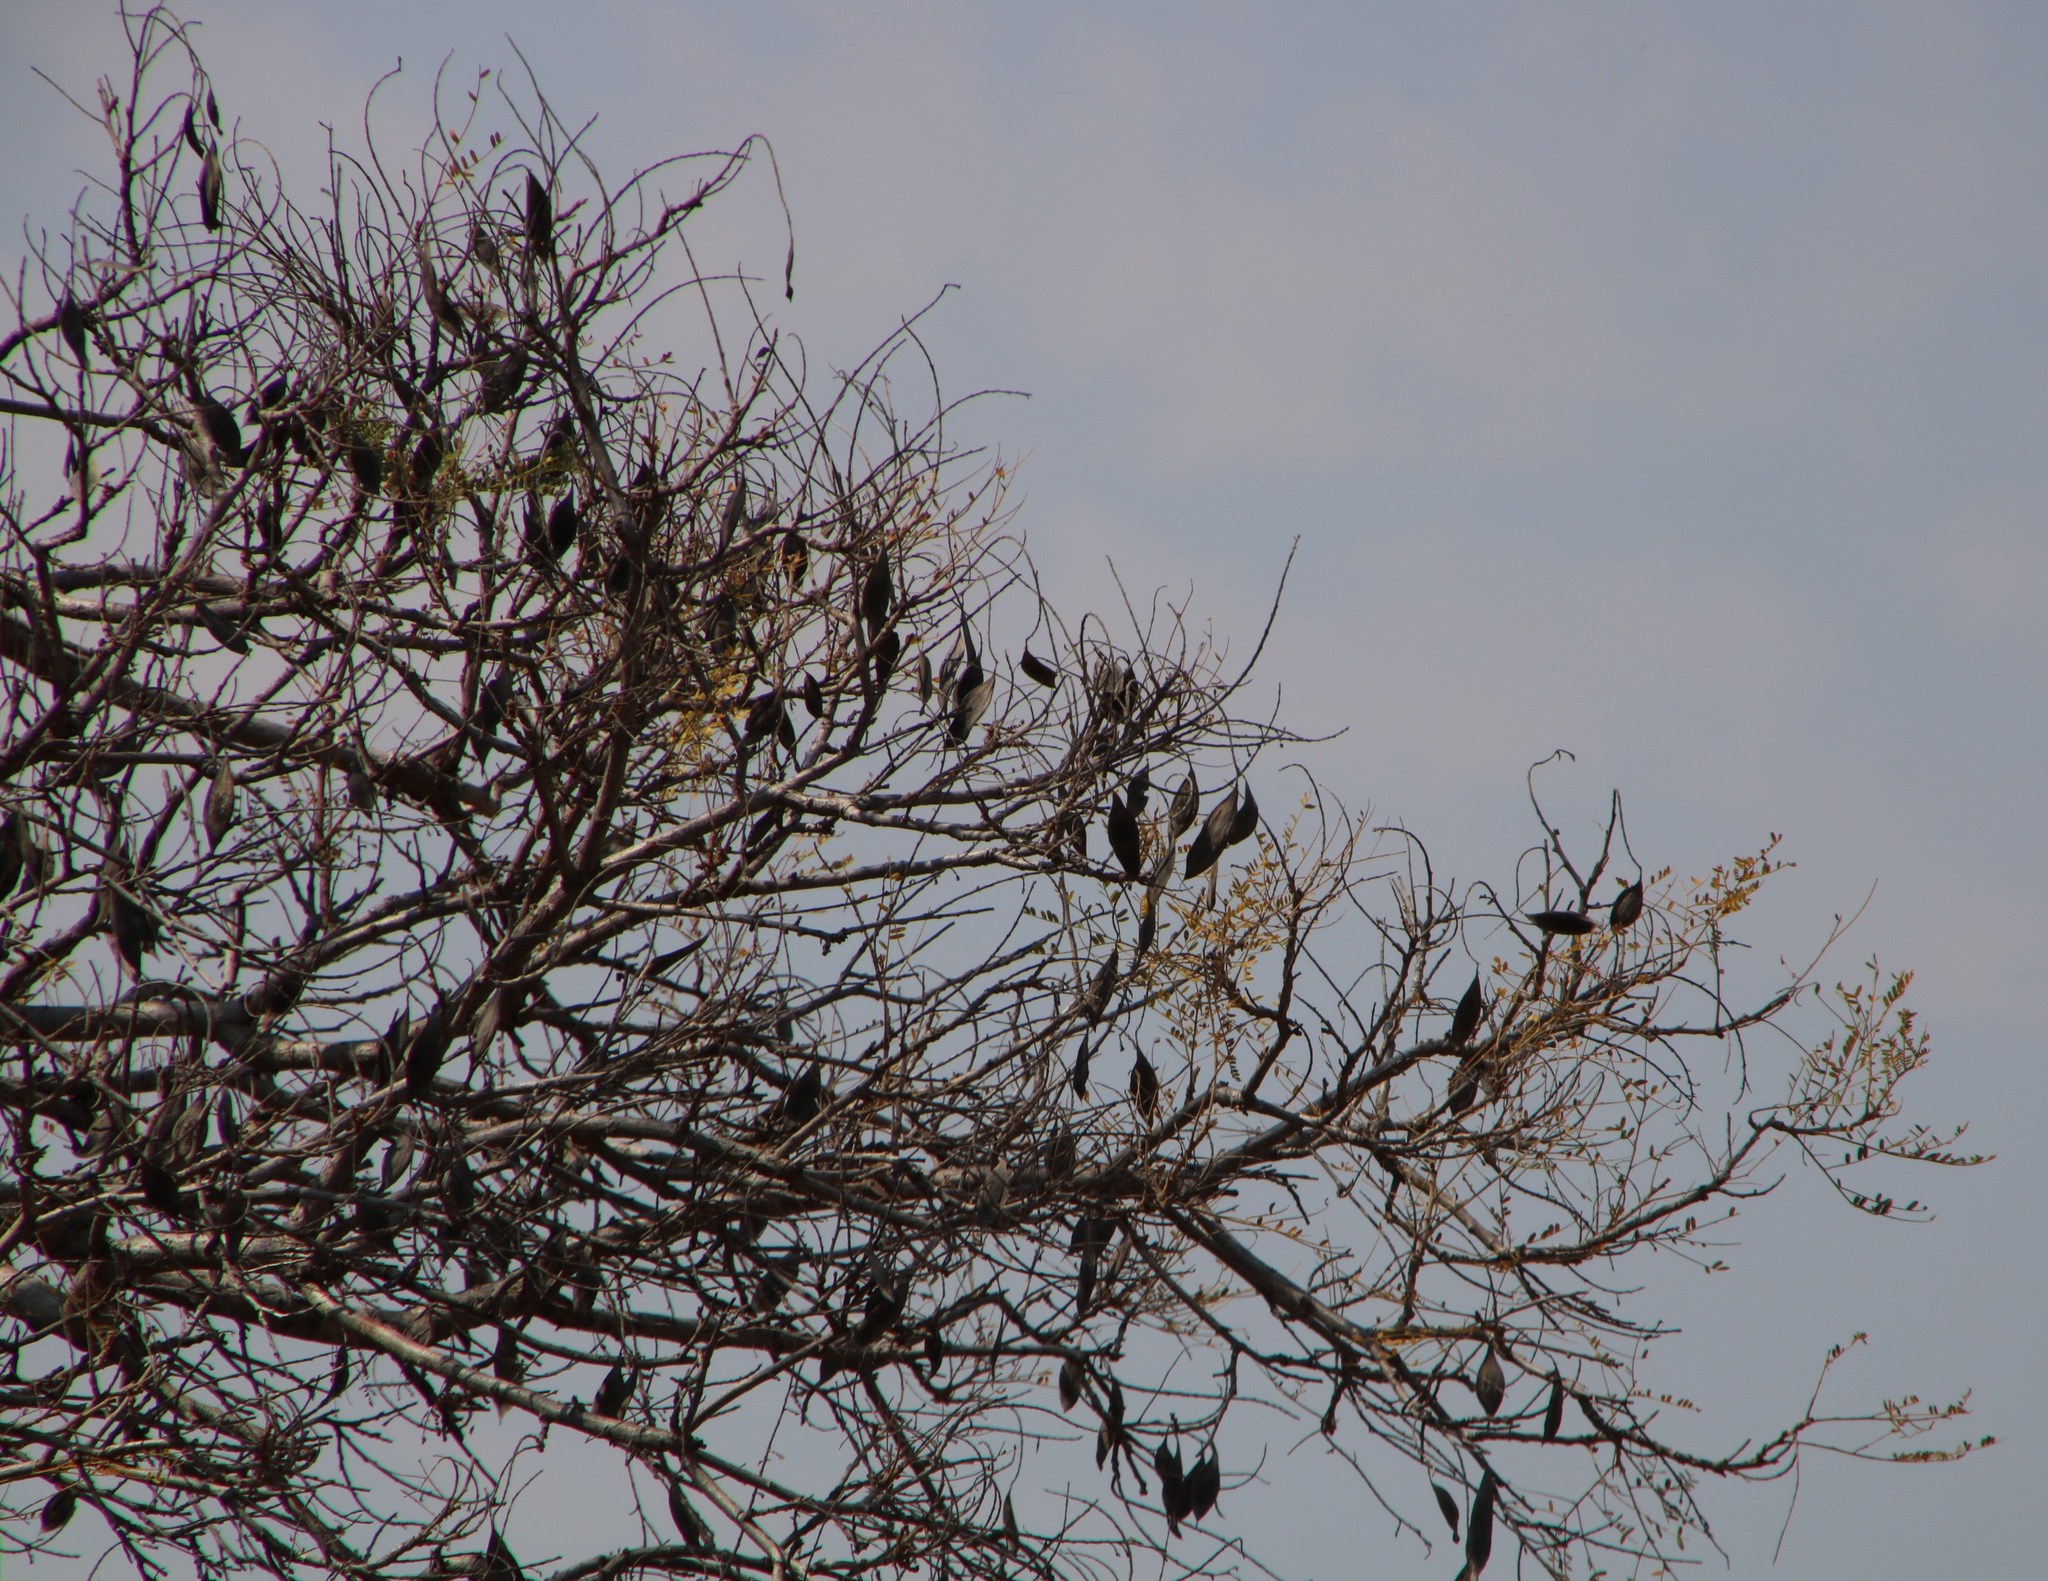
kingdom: Plantae
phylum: Tracheophyta
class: Magnoliopsida
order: Fabales
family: Fabaceae
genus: Peltophorum
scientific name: Peltophorum africanum
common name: African black wattle
